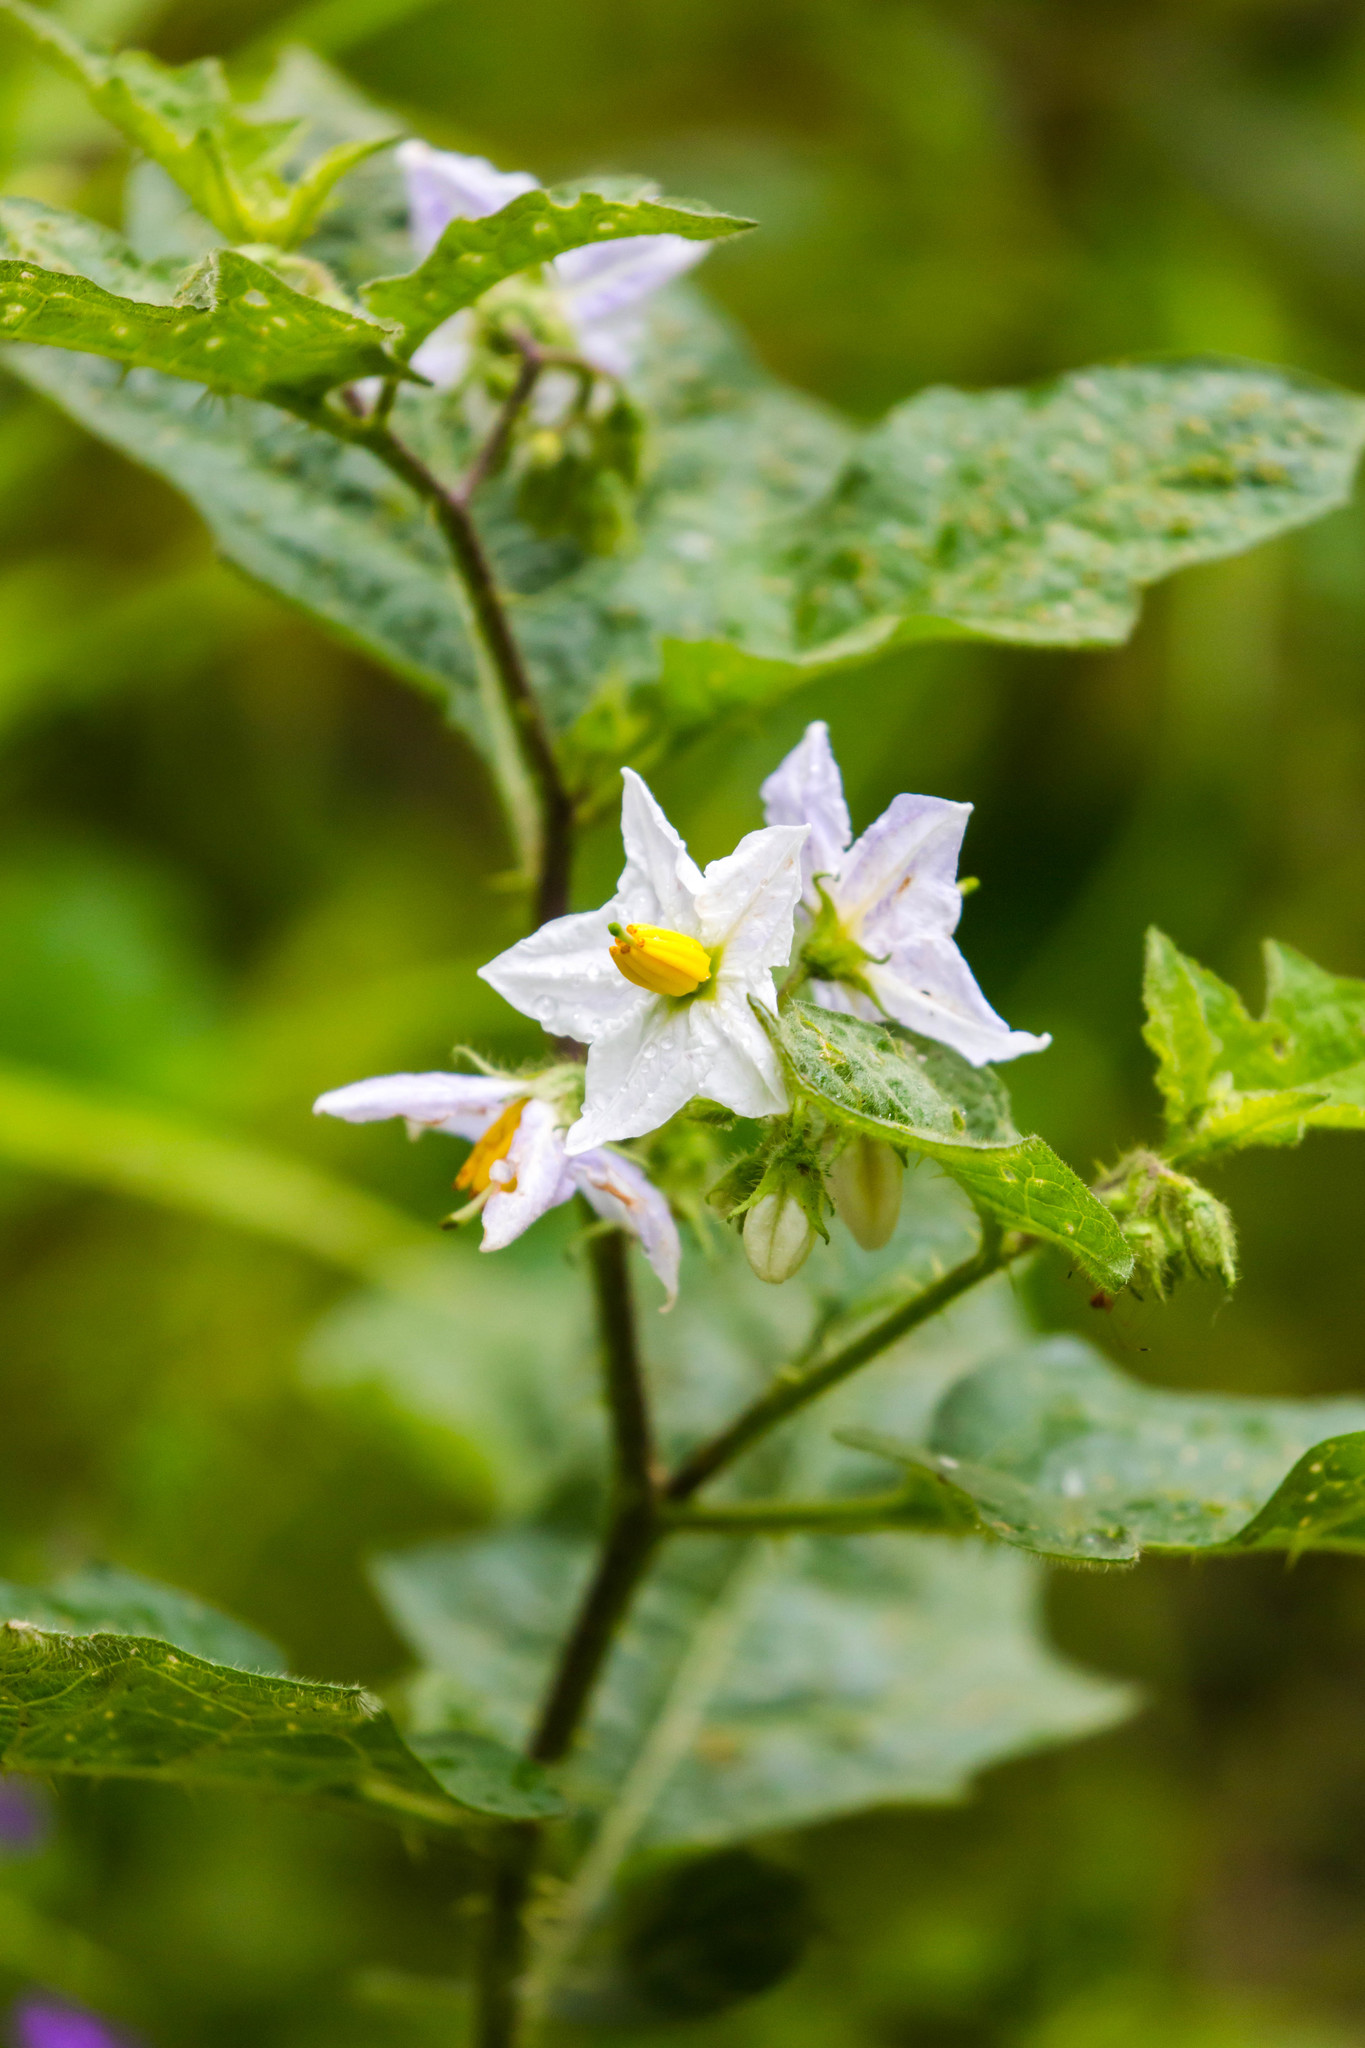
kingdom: Plantae
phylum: Tracheophyta
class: Magnoliopsida
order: Solanales
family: Solanaceae
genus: Solanum
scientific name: Solanum carolinense
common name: Horse-nettle
